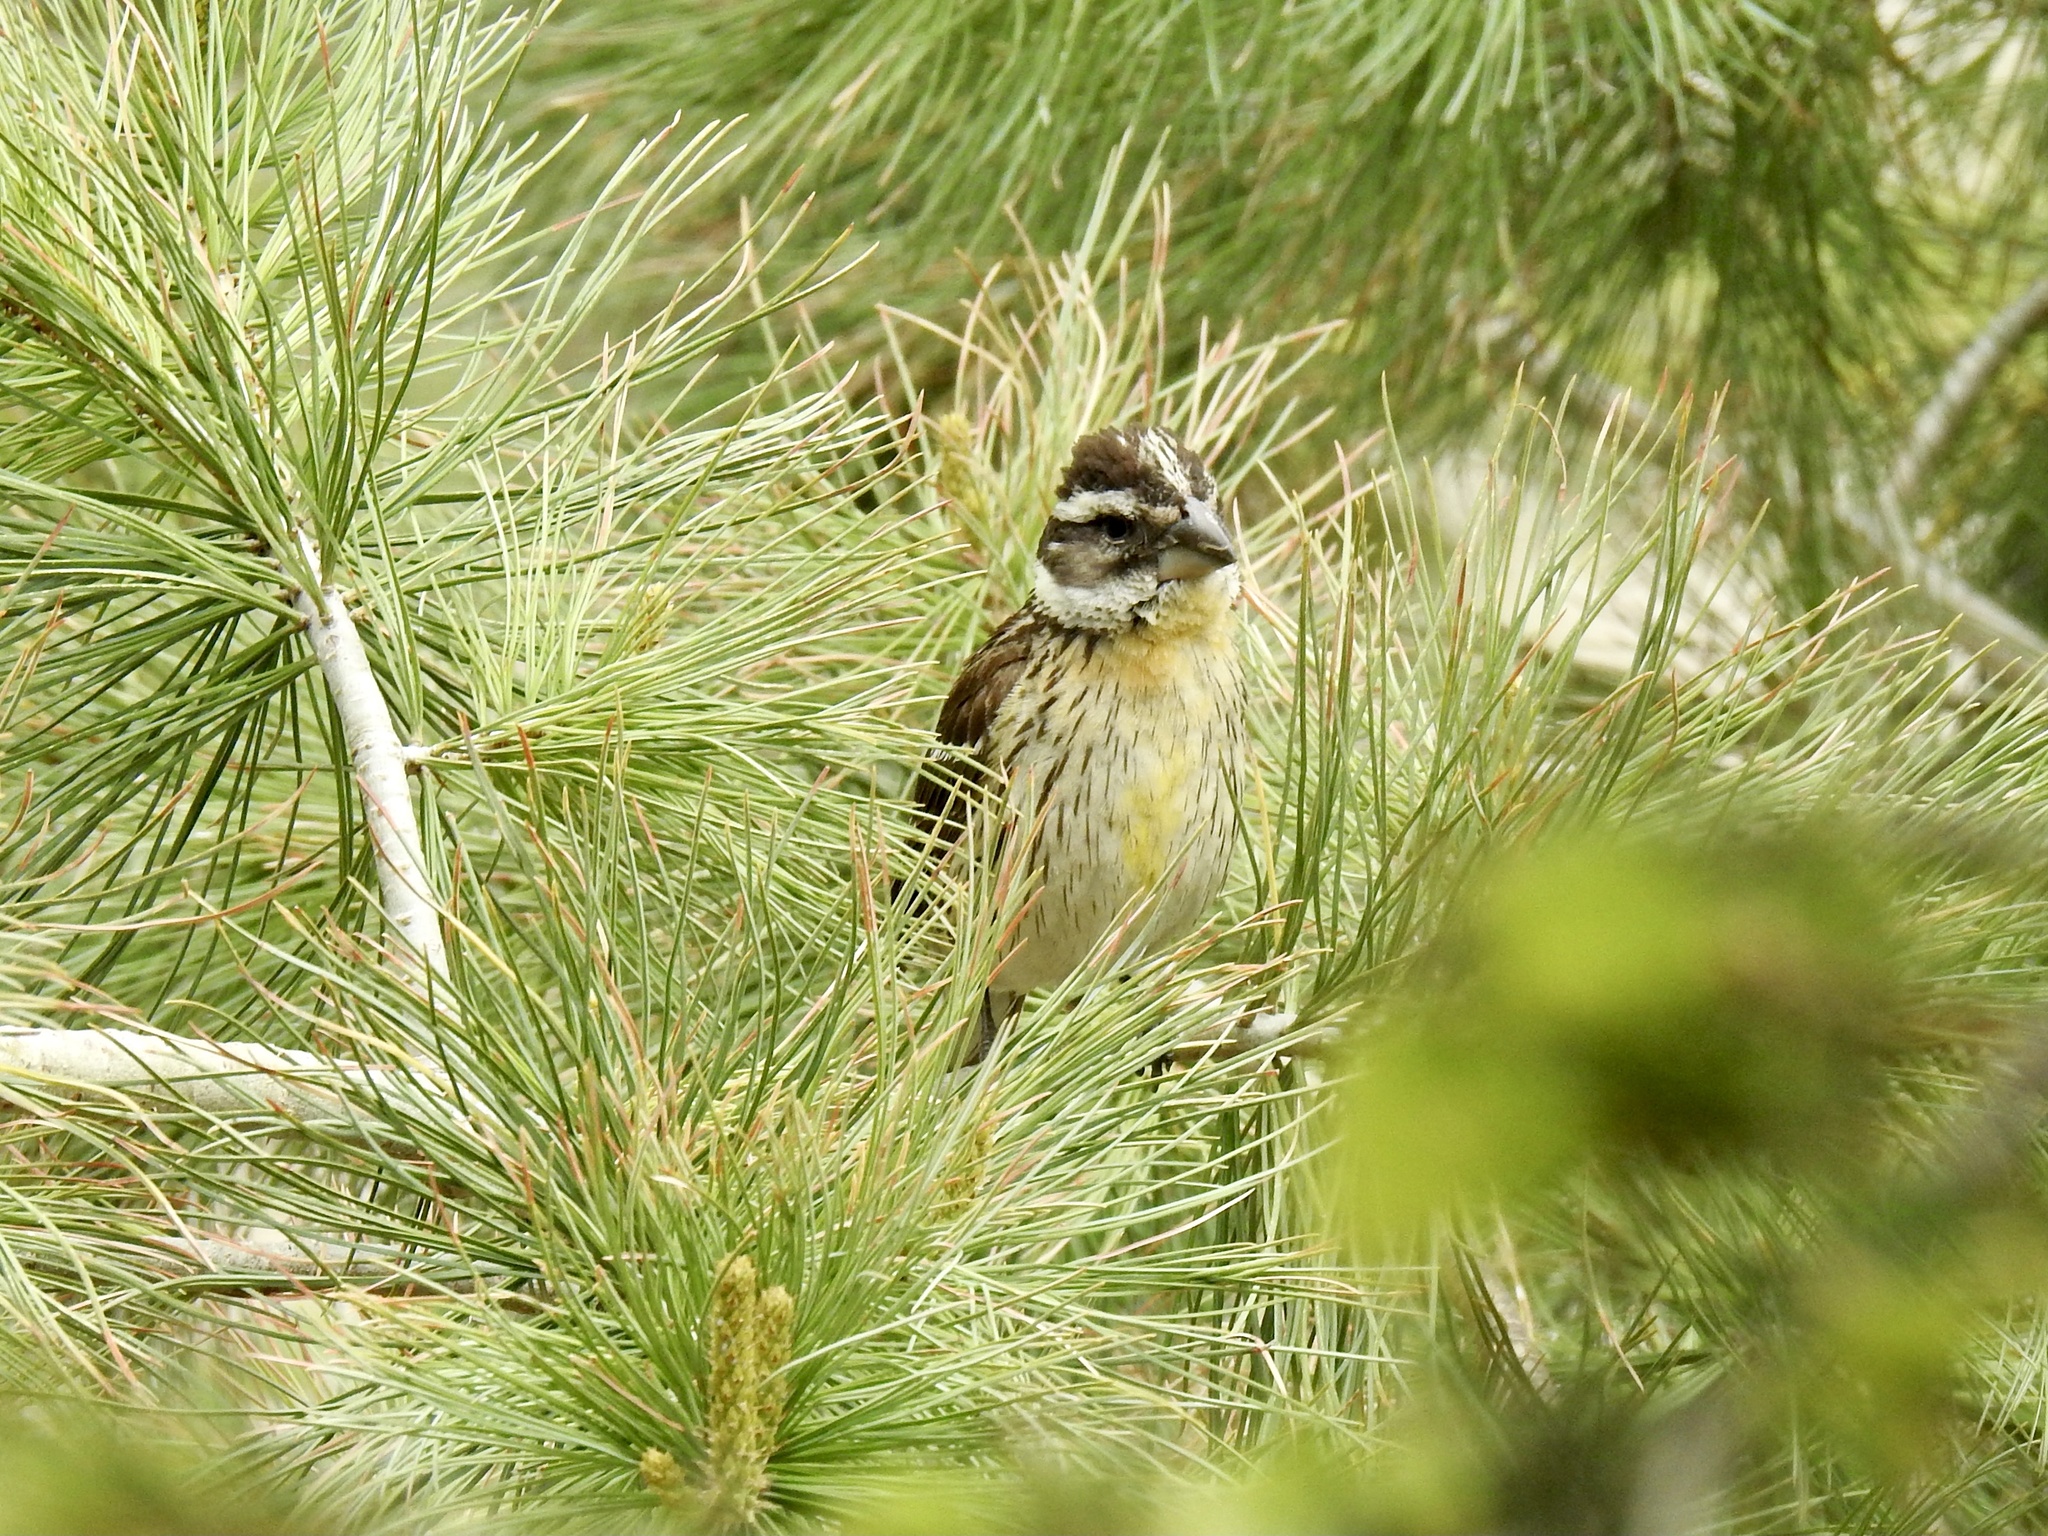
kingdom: Animalia
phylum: Chordata
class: Aves
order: Passeriformes
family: Cardinalidae
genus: Pheucticus
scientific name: Pheucticus melanocephalus
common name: Black-headed grosbeak
